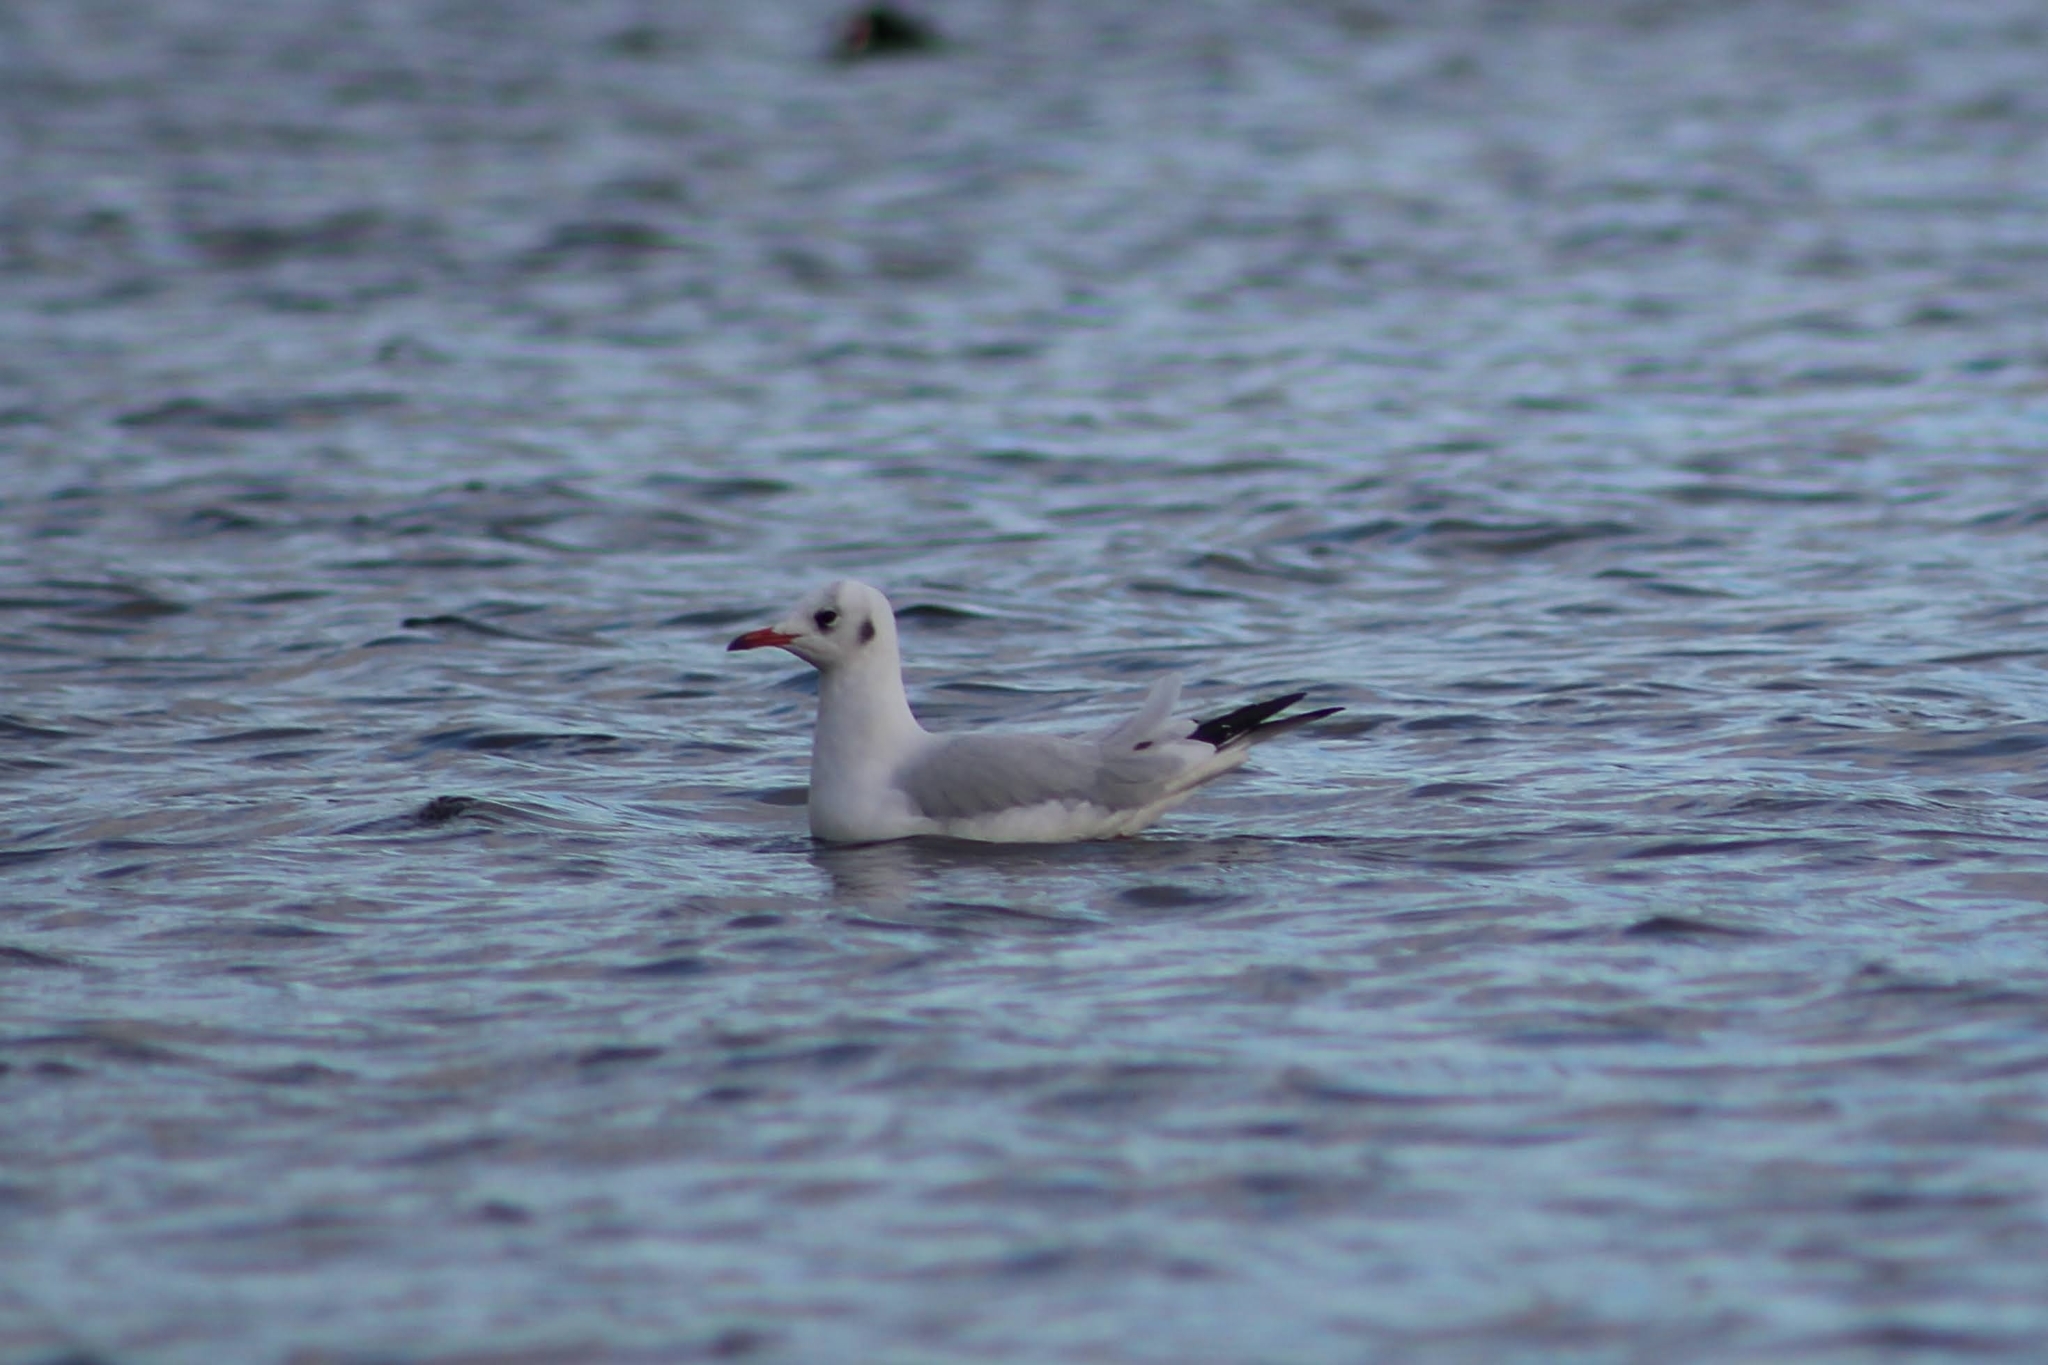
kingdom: Animalia
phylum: Chordata
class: Aves
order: Charadriiformes
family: Laridae
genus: Chroicocephalus
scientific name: Chroicocephalus ridibundus
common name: Black-headed gull
